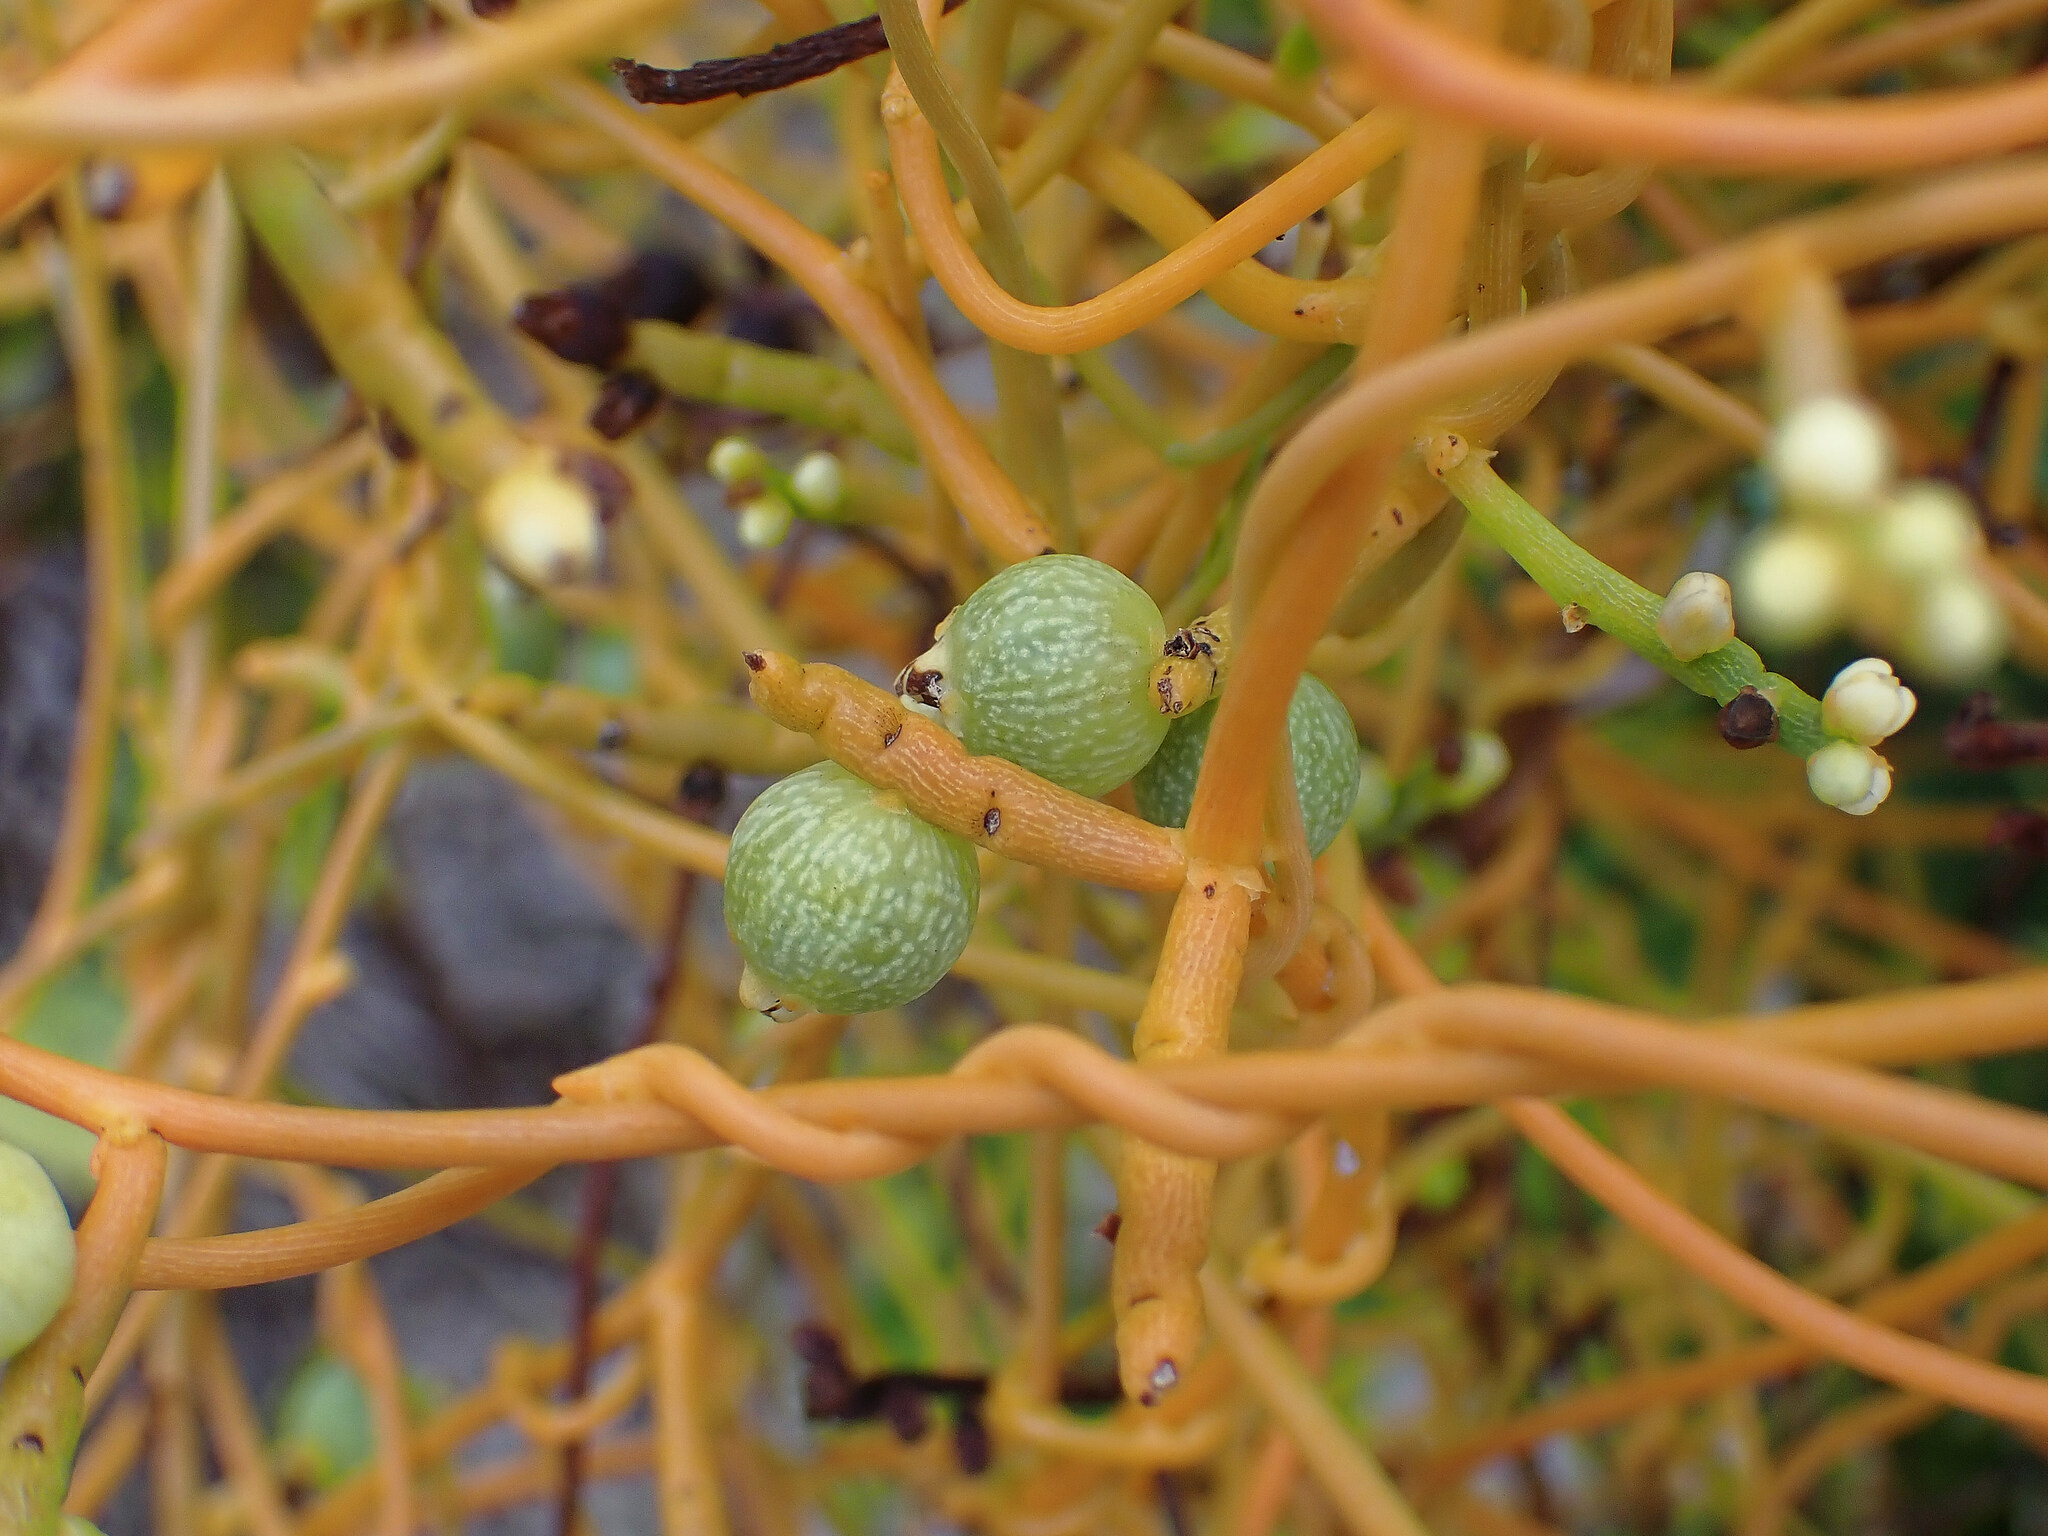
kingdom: Plantae
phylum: Tracheophyta
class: Magnoliopsida
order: Laurales
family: Lauraceae
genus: Cassytha
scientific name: Cassytha filiformis
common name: Dodder-laurel
